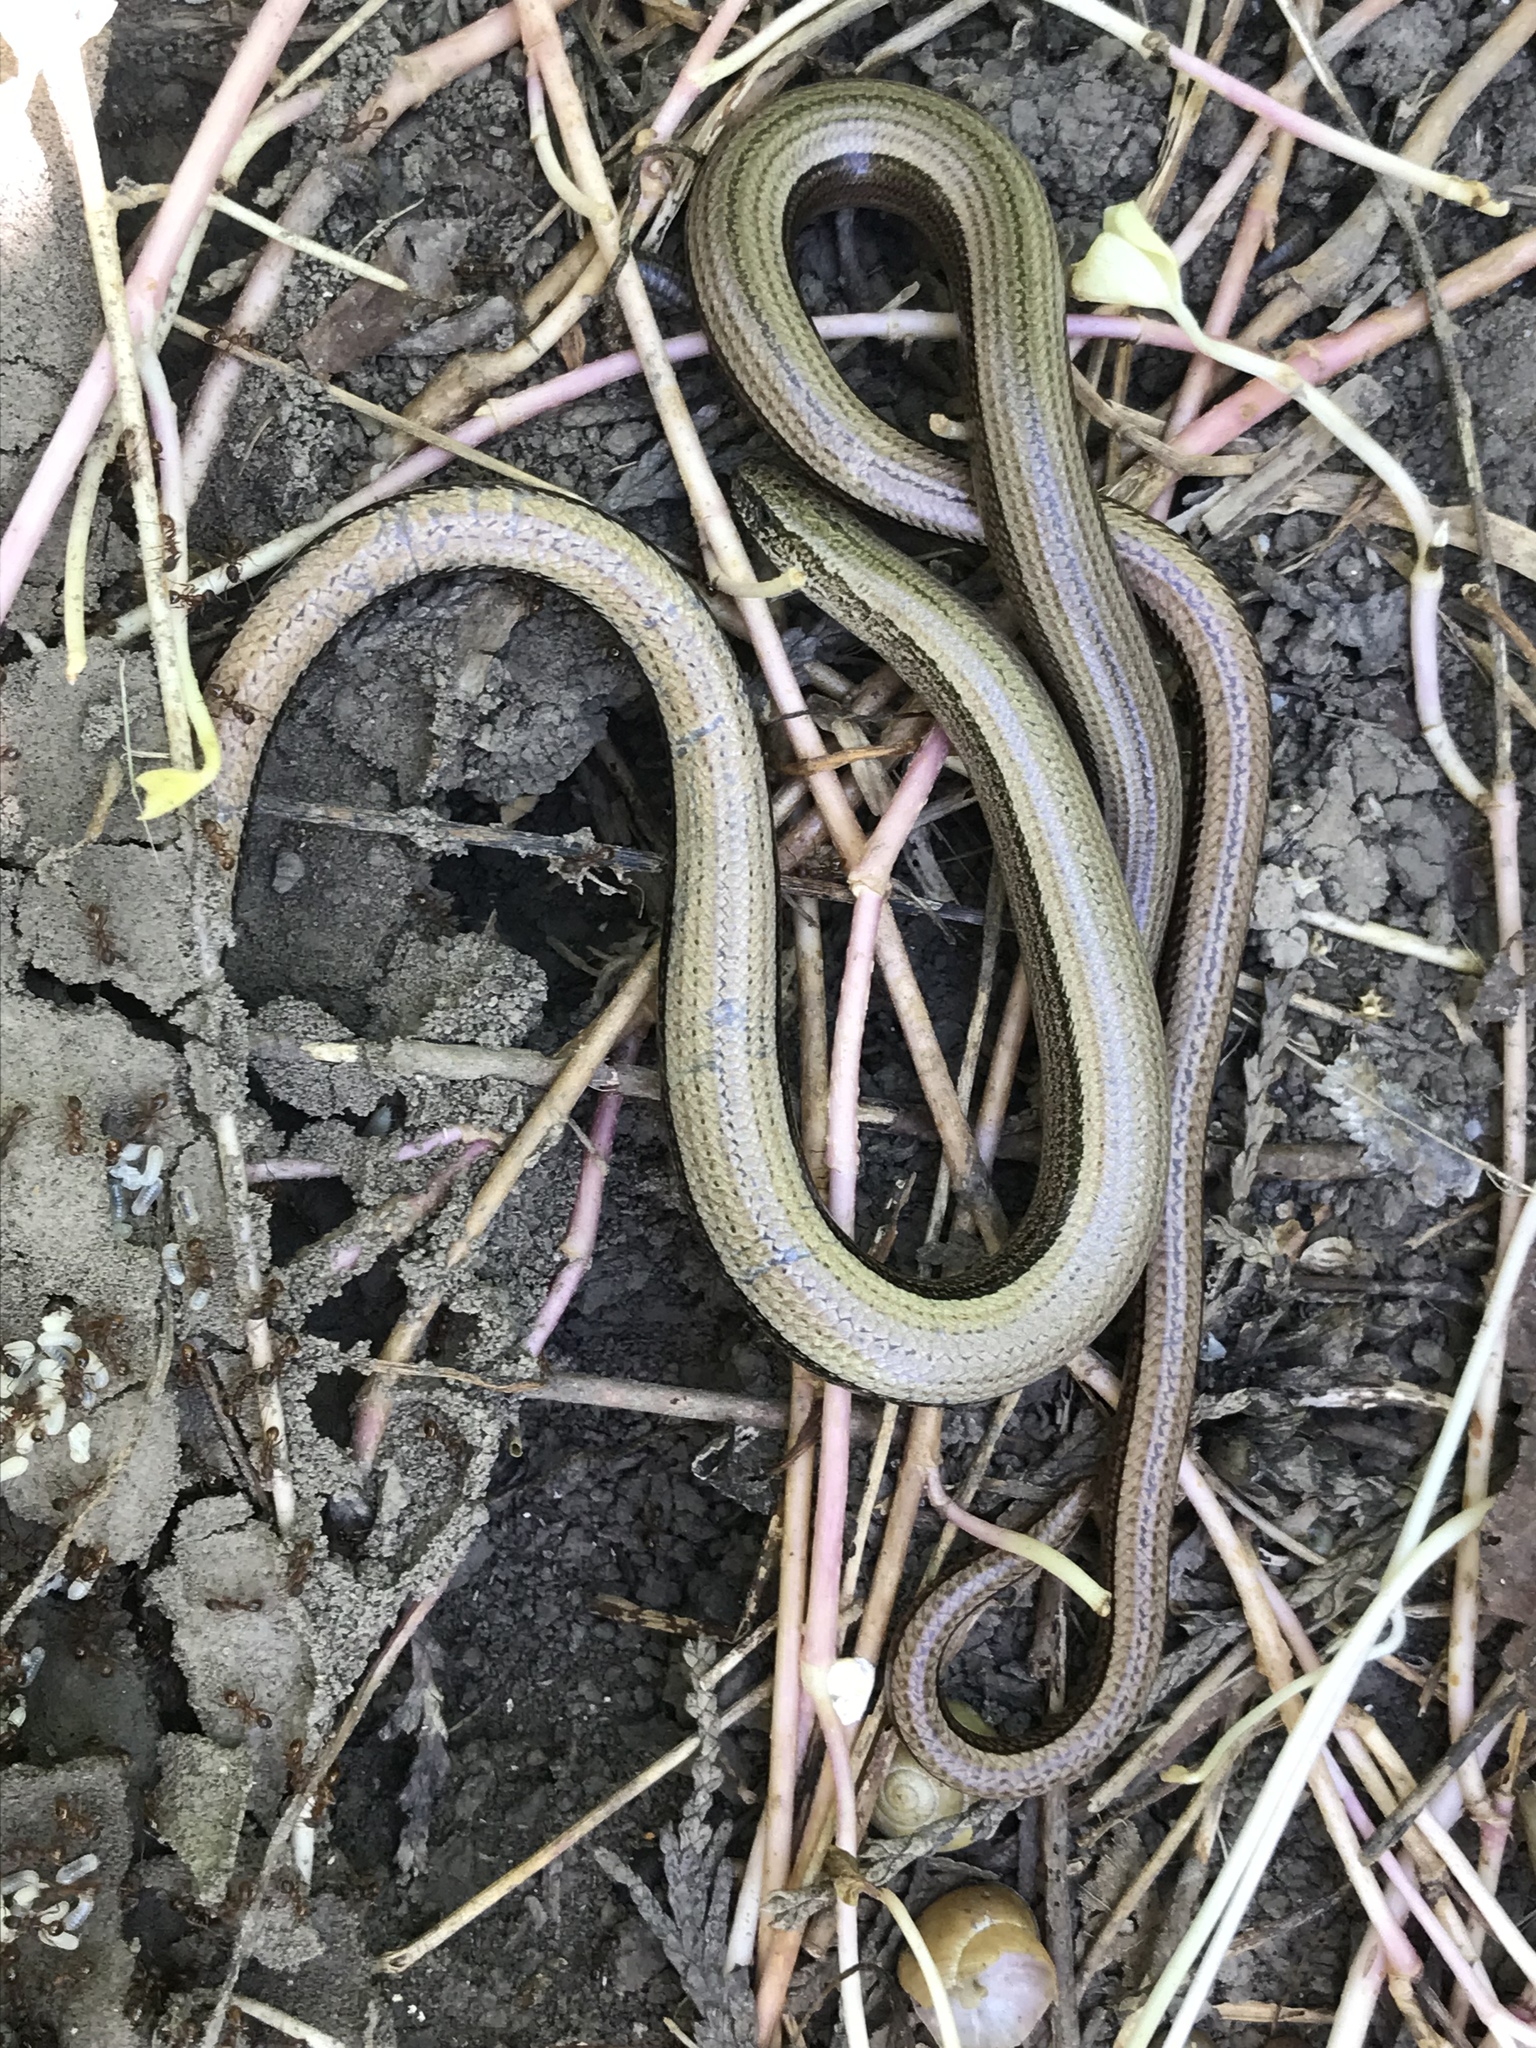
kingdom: Animalia
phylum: Chordata
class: Squamata
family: Anguidae
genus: Anguis
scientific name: Anguis fragilis
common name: Slow worm
